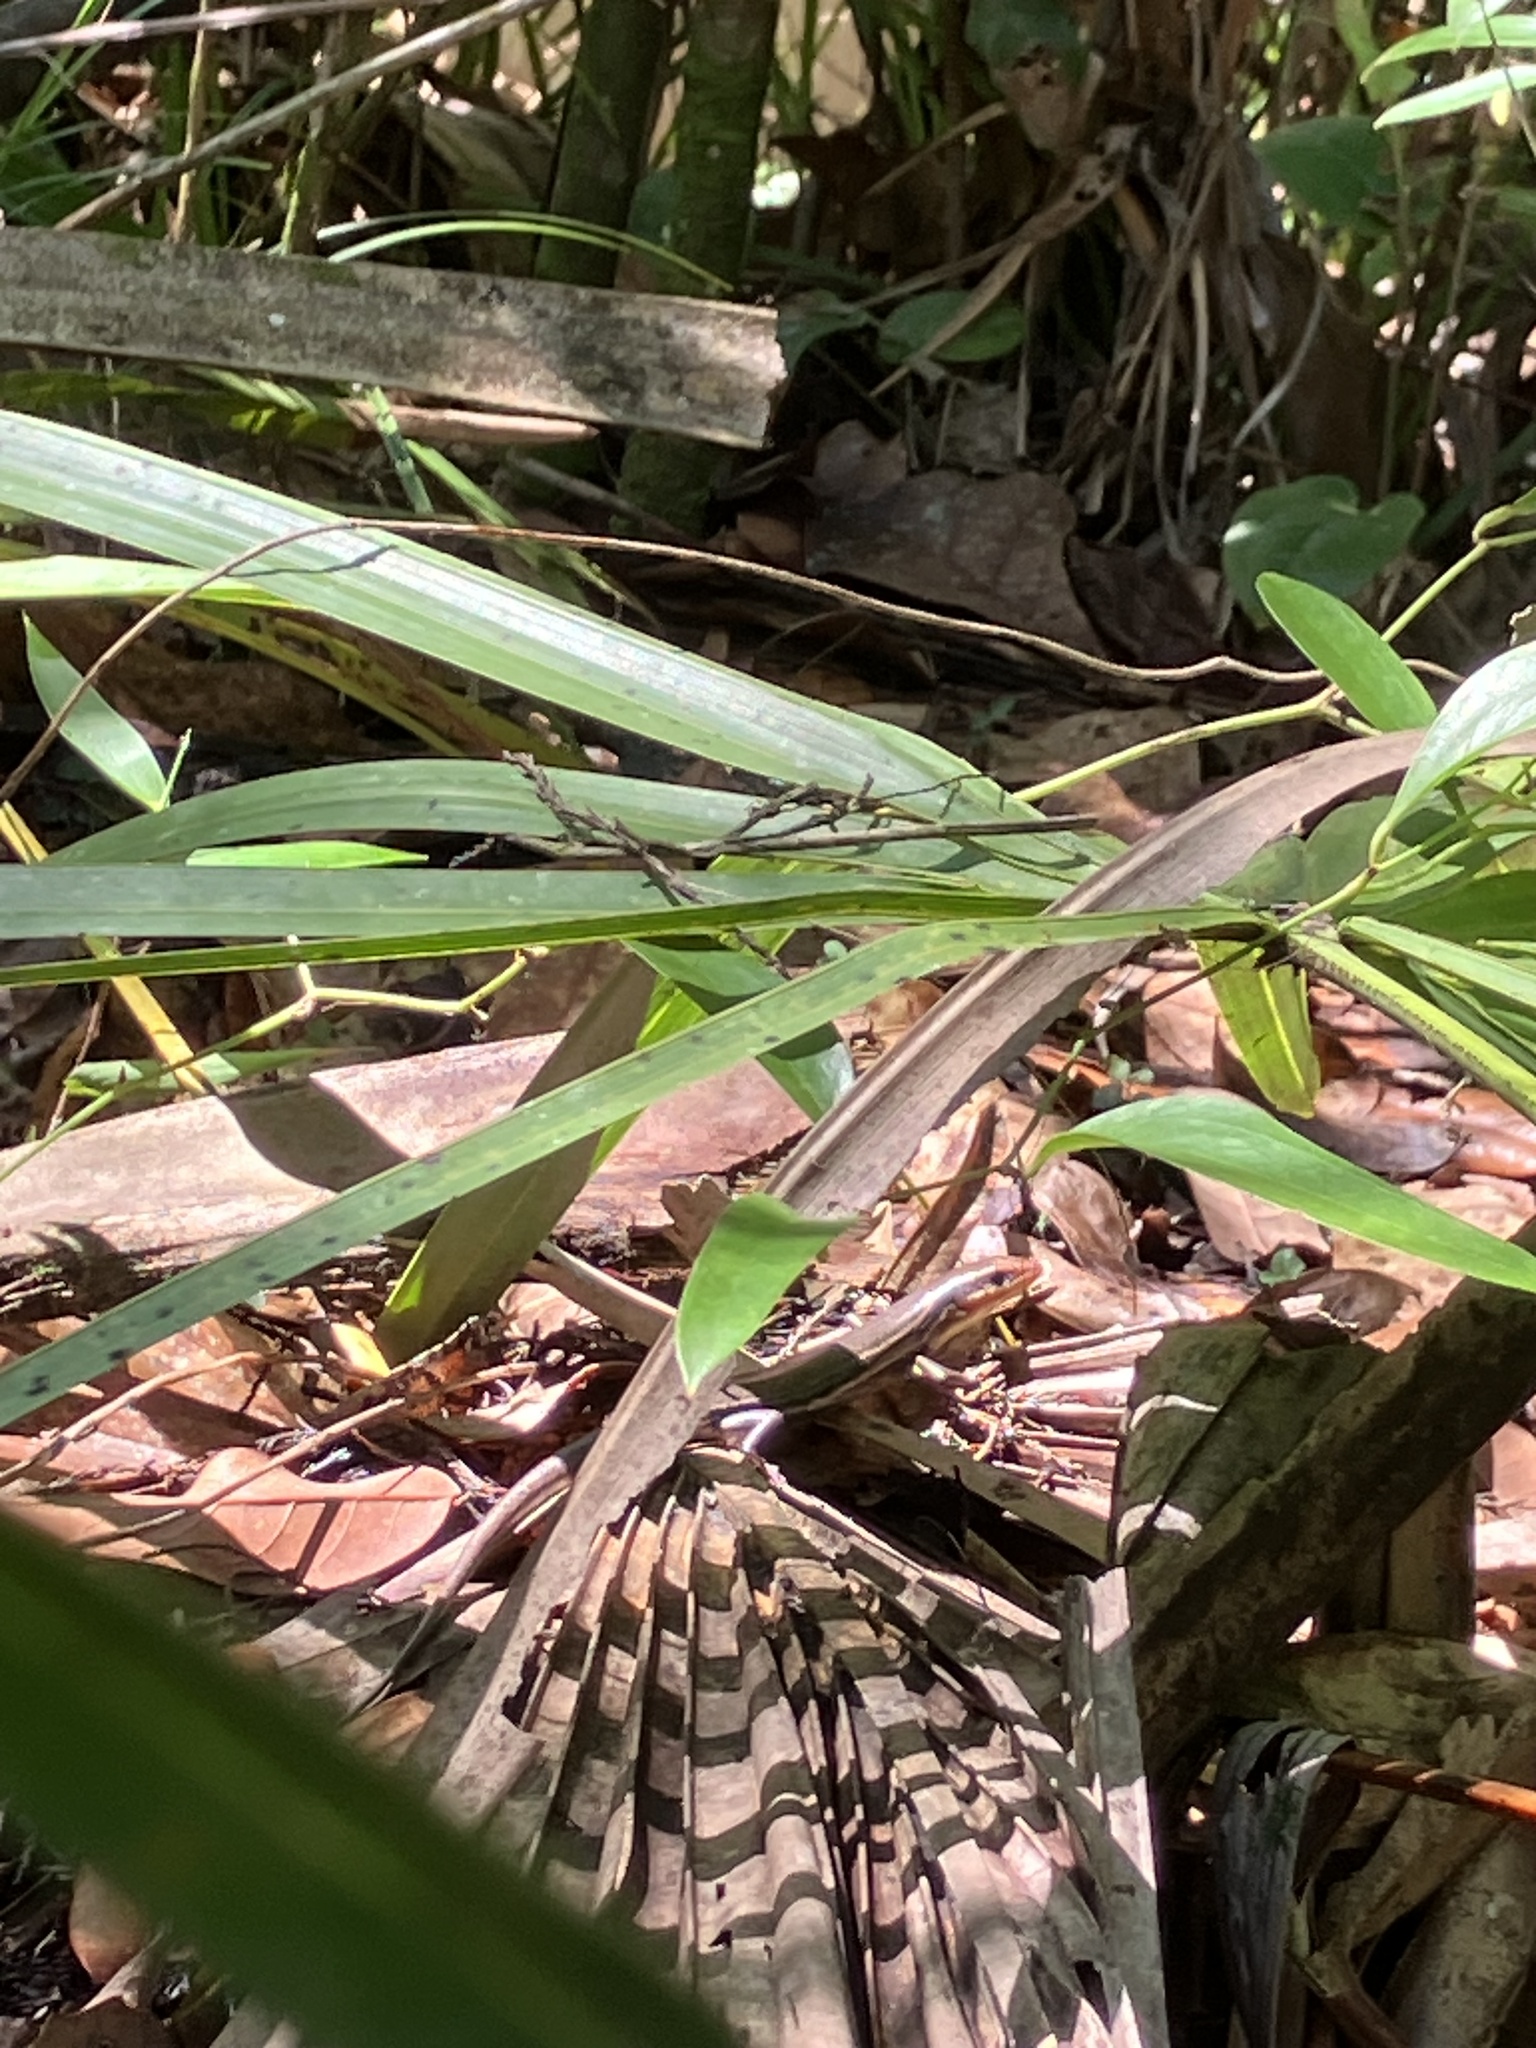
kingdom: Animalia
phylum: Chordata
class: Squamata
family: Scincidae
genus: Plestiodon
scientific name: Plestiodon inexpectatus
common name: Southeastern five-lined skink
